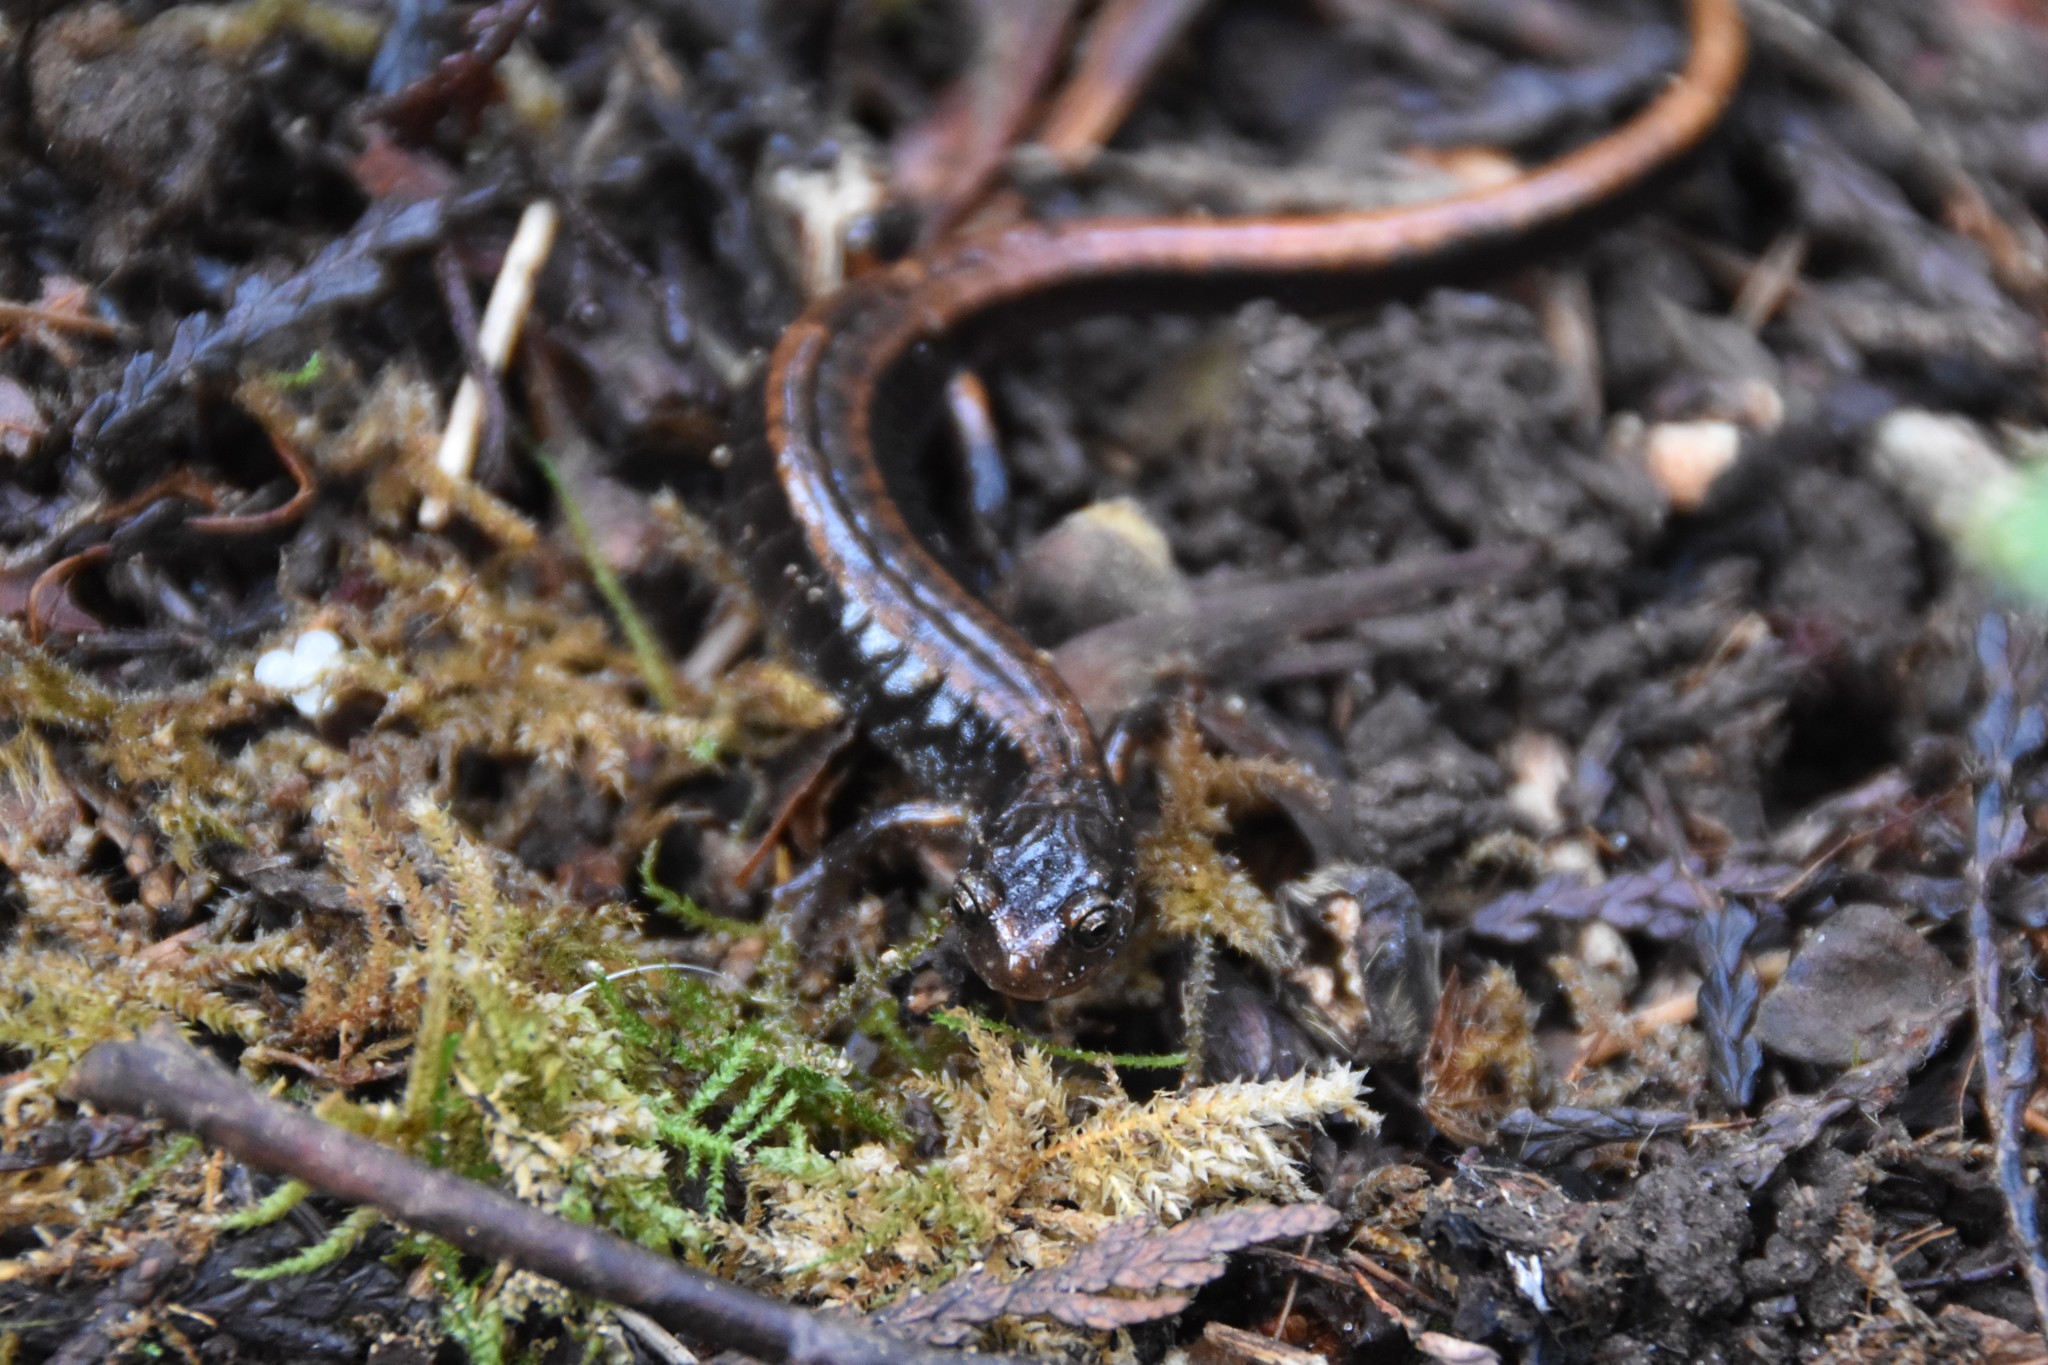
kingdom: Animalia
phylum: Chordata
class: Amphibia
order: Caudata
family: Plethodontidae
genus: Plethodon
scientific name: Plethodon vehiculum
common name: Western red-backed salamander
